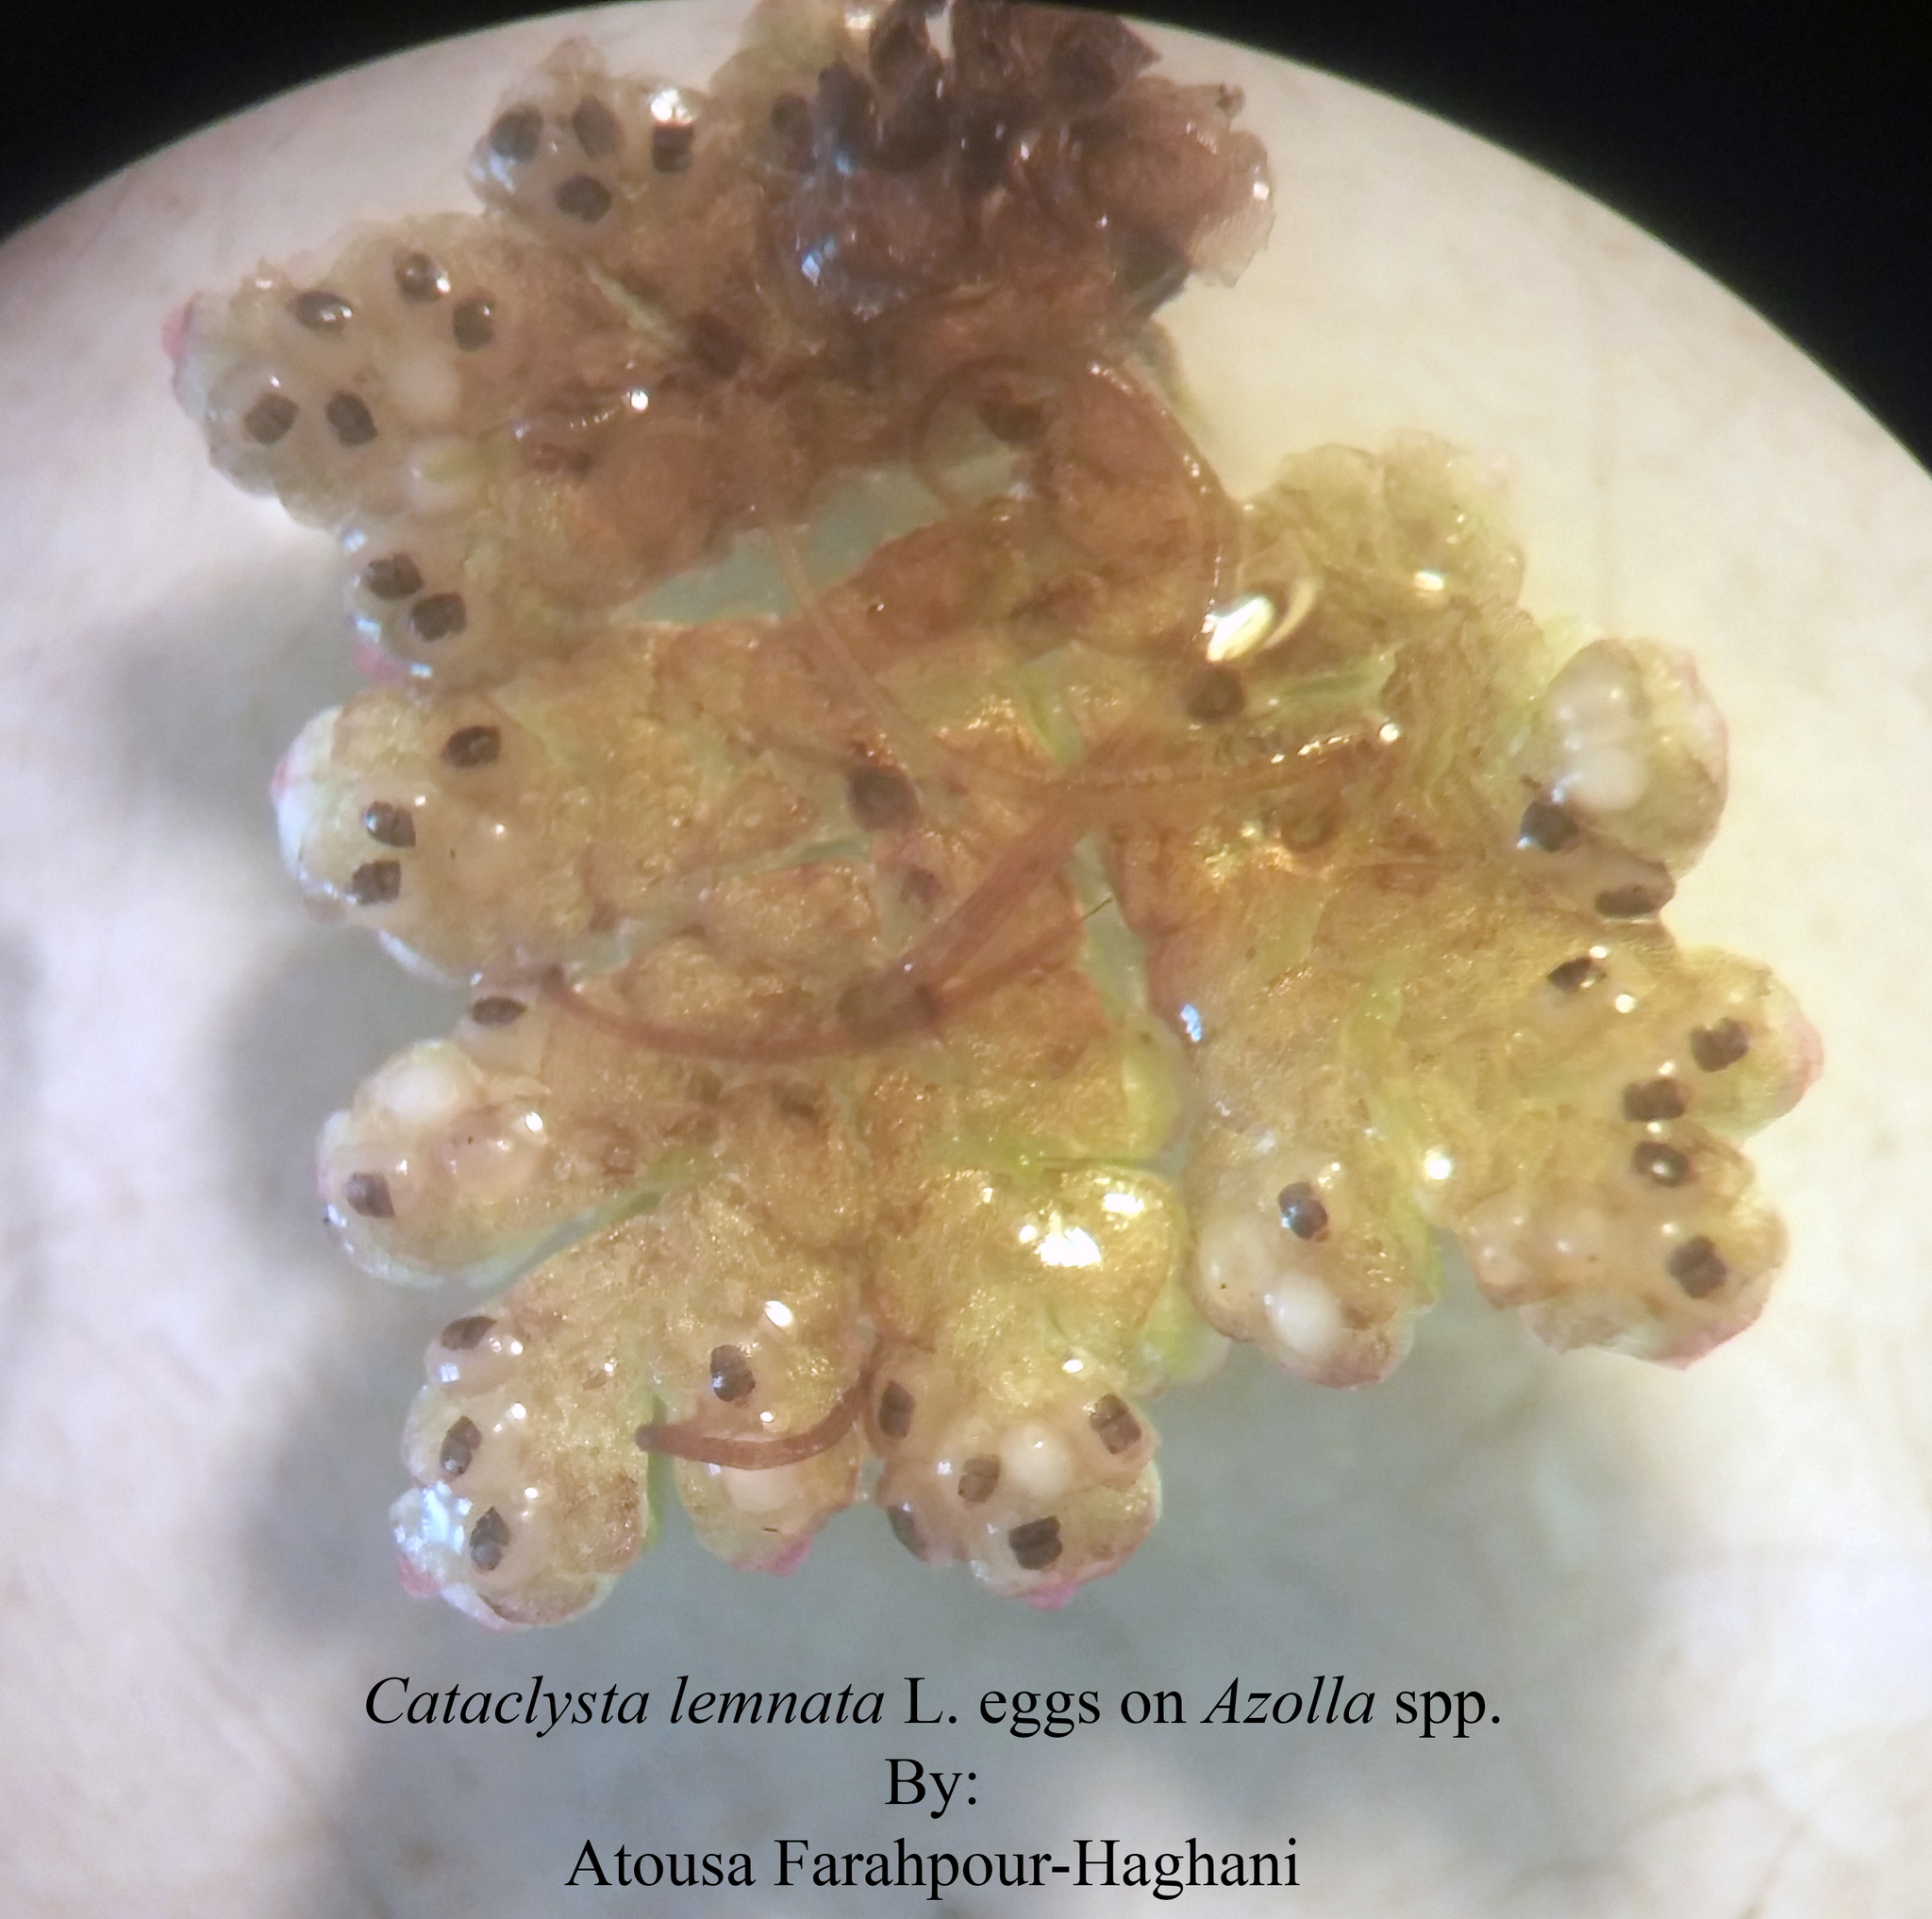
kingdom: Animalia
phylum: Arthropoda
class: Insecta
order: Lepidoptera
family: Crambidae
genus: Cataclysta
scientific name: Cataclysta lemnata
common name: Small china-mark
